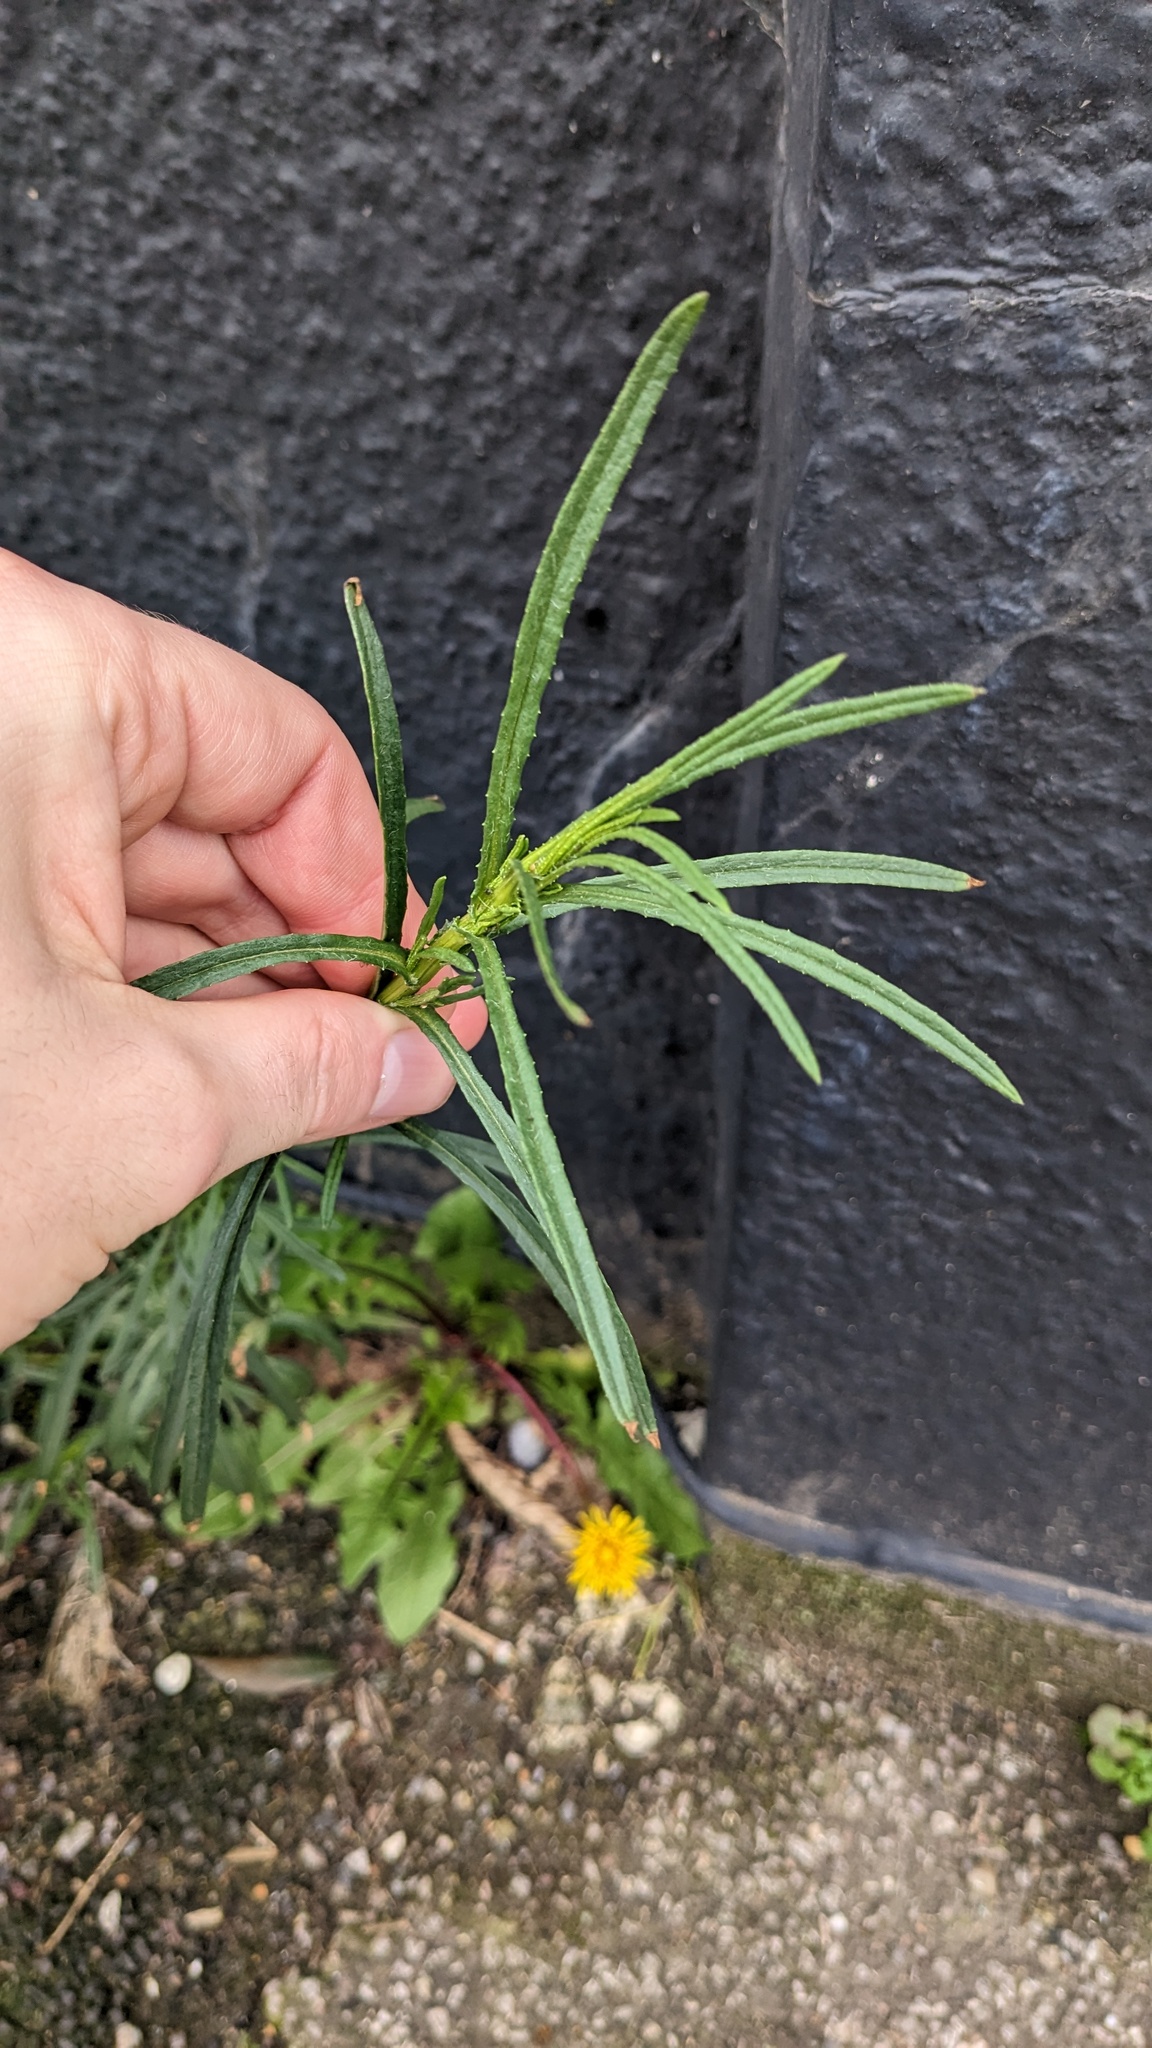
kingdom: Plantae
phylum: Tracheophyta
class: Magnoliopsida
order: Asterales
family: Asteraceae
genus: Senecio
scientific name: Senecio inaequidens
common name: Narrow-leaved ragwort
